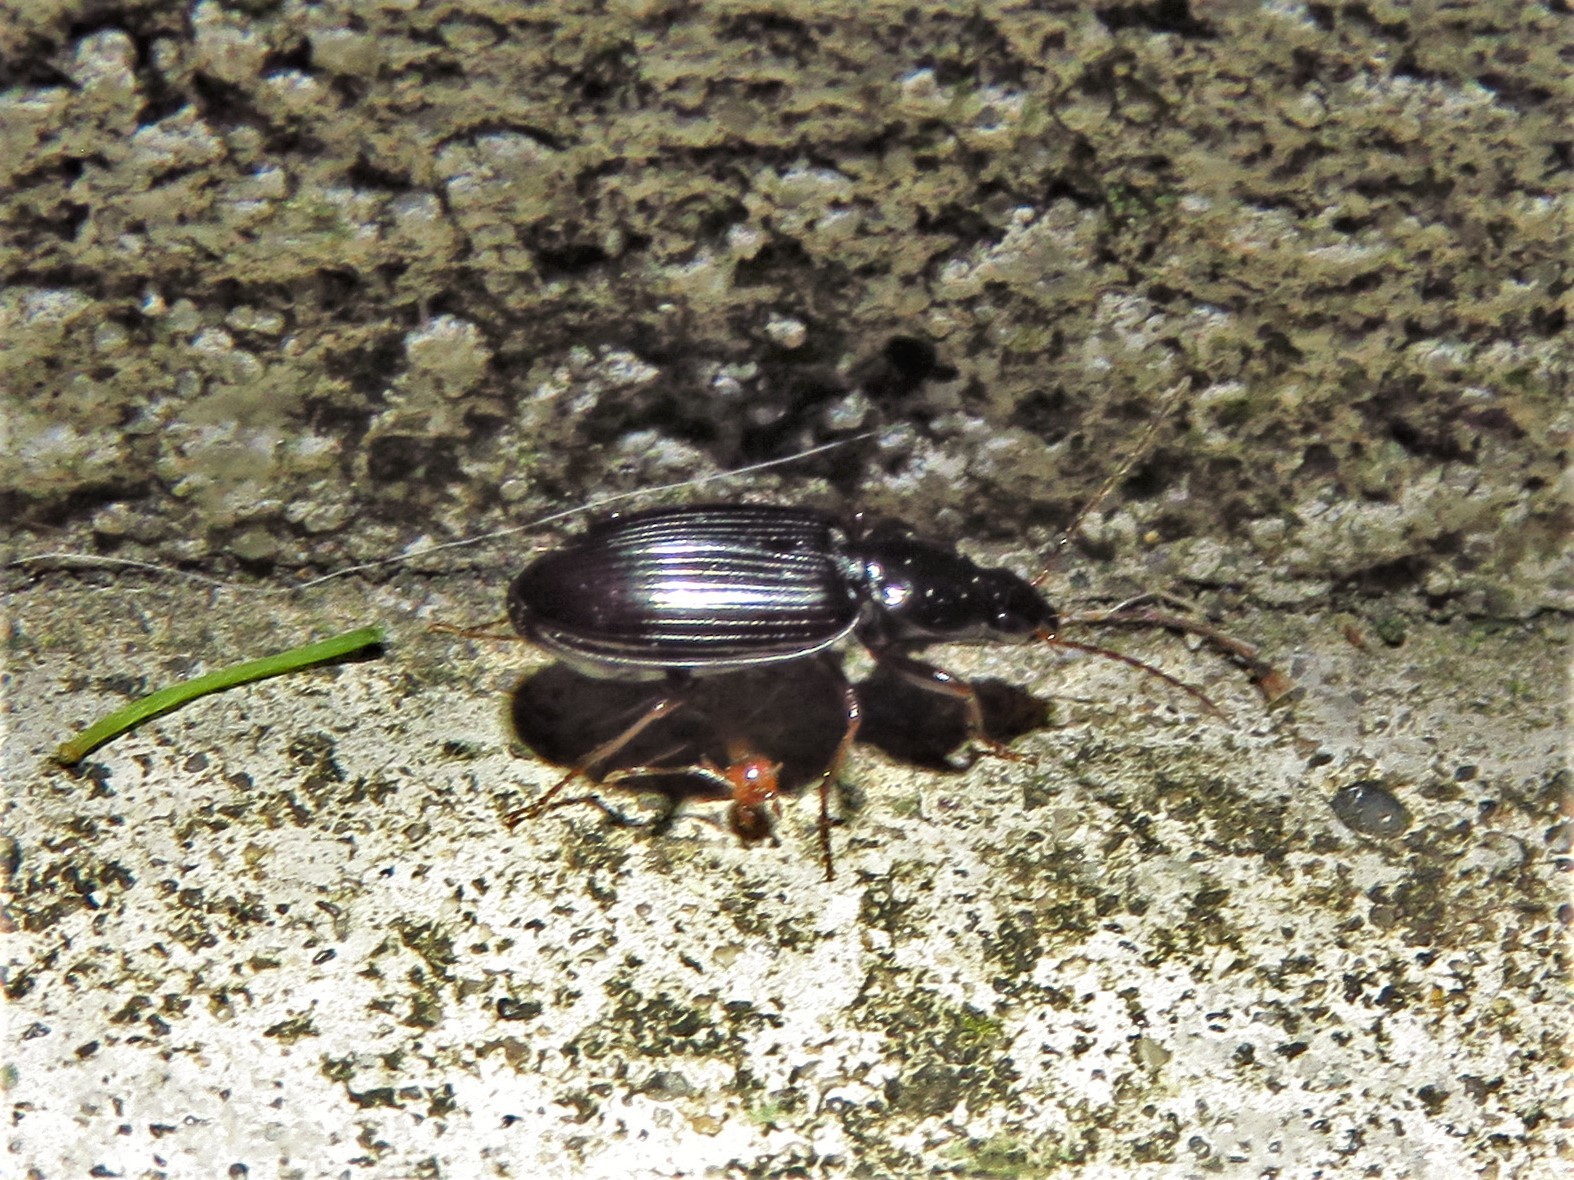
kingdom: Animalia
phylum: Arthropoda
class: Insecta
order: Coleoptera
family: Carabidae
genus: Agonum
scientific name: Agonum punctiforme
